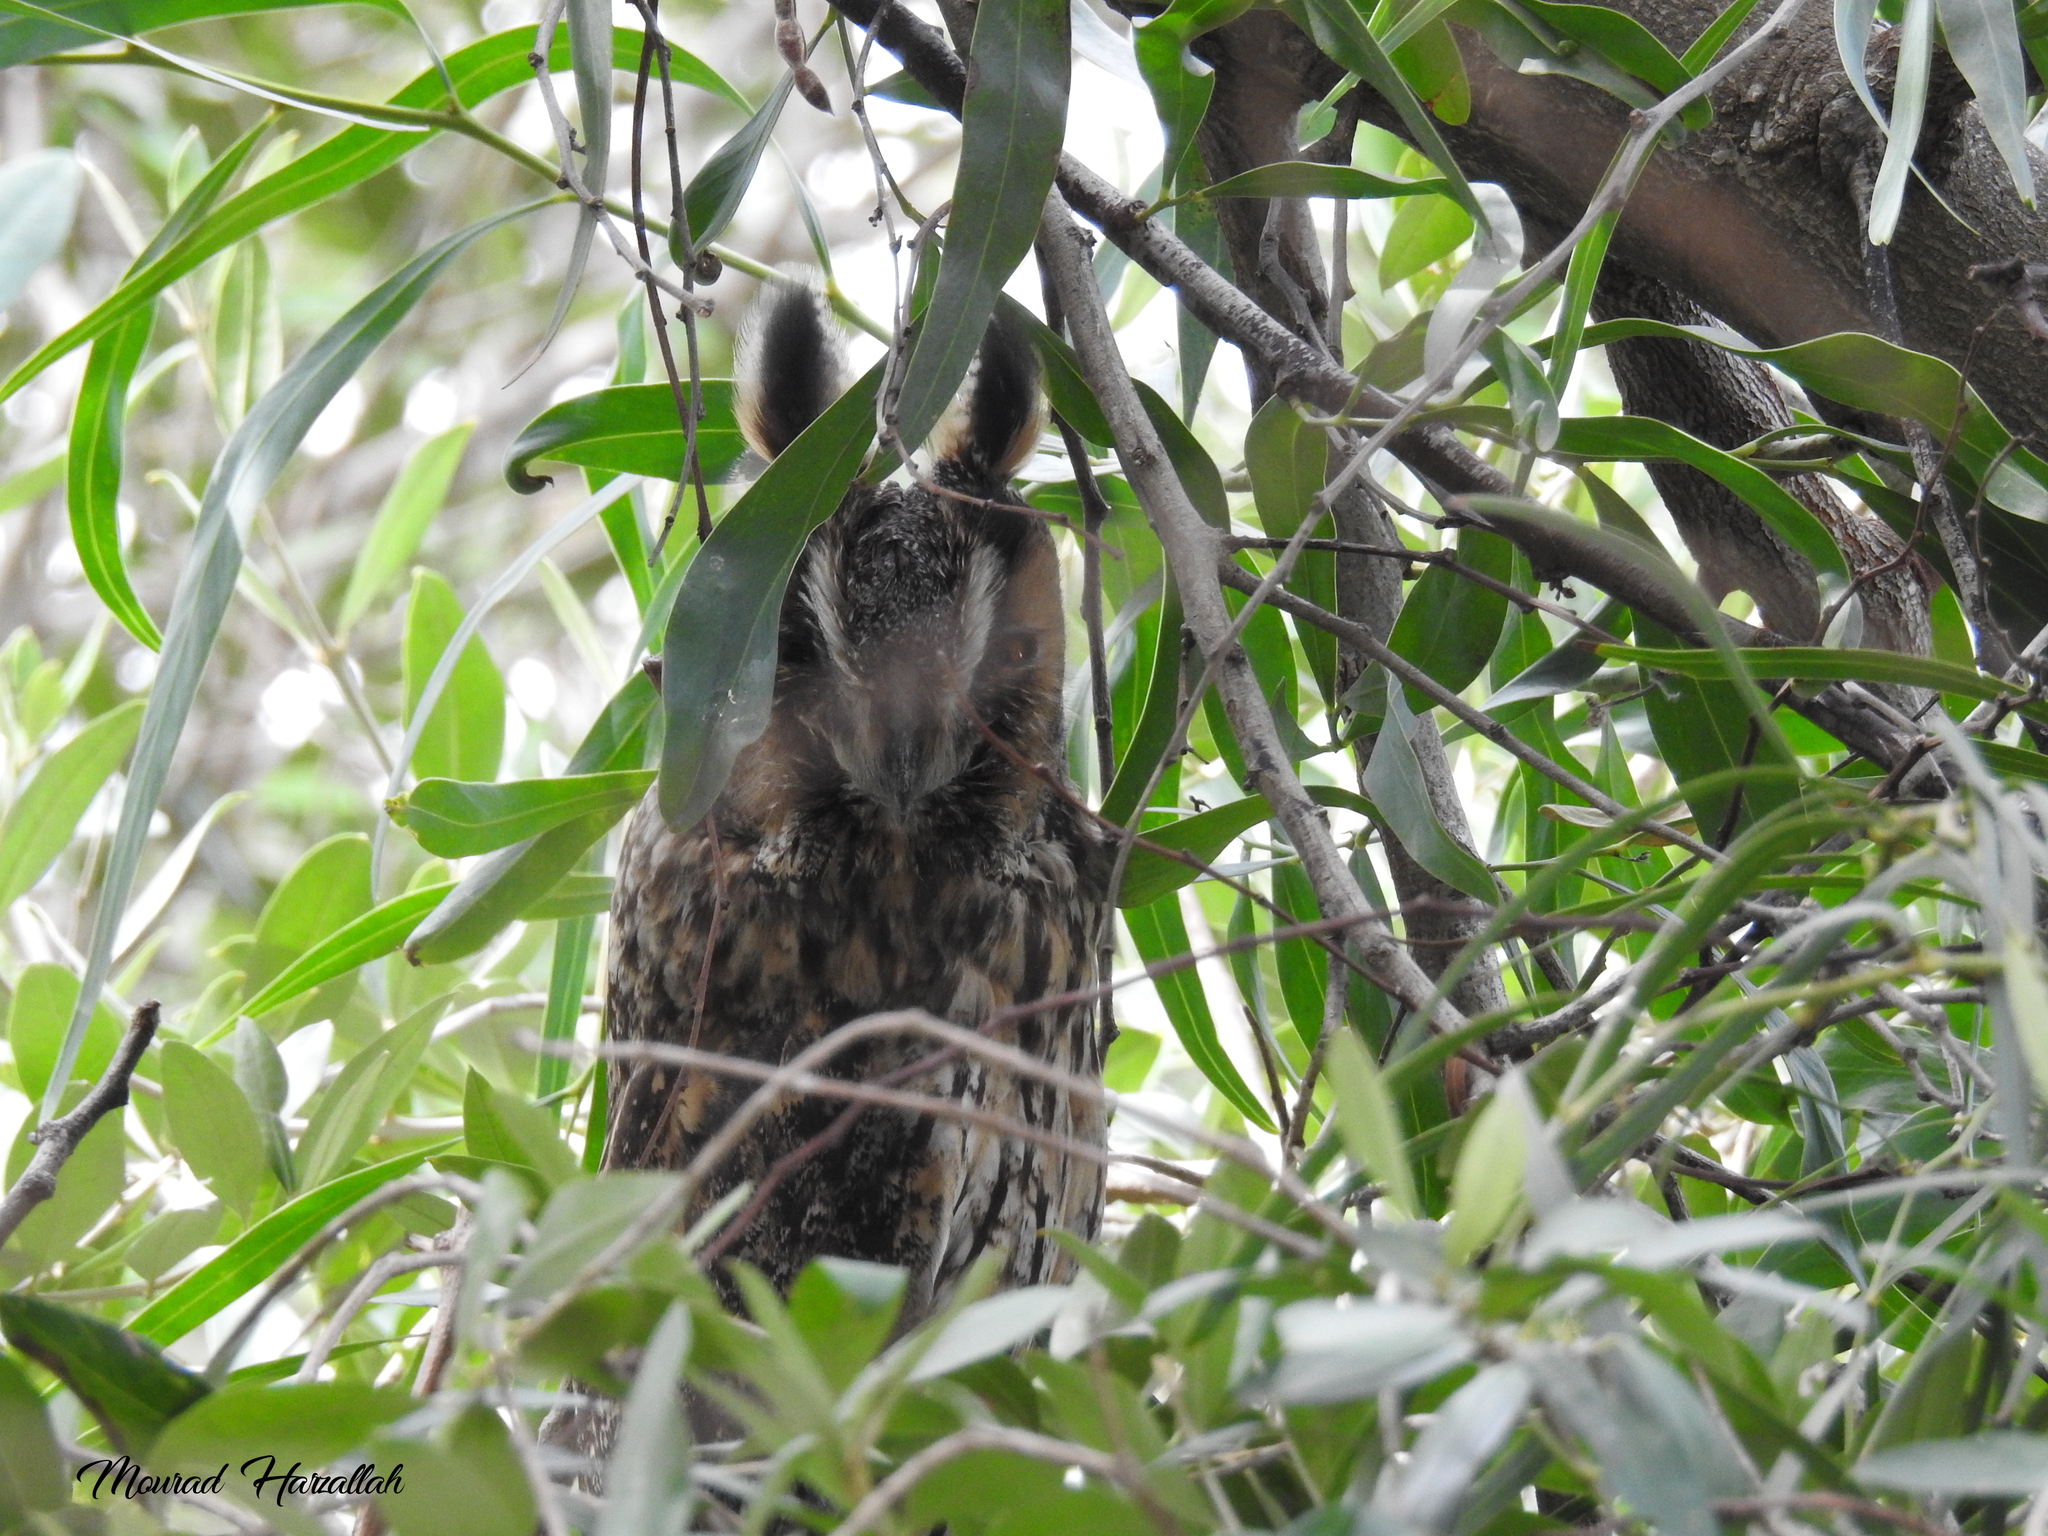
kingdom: Animalia
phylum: Chordata
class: Aves
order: Strigiformes
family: Strigidae
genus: Asio
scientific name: Asio otus
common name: Long-eared owl
